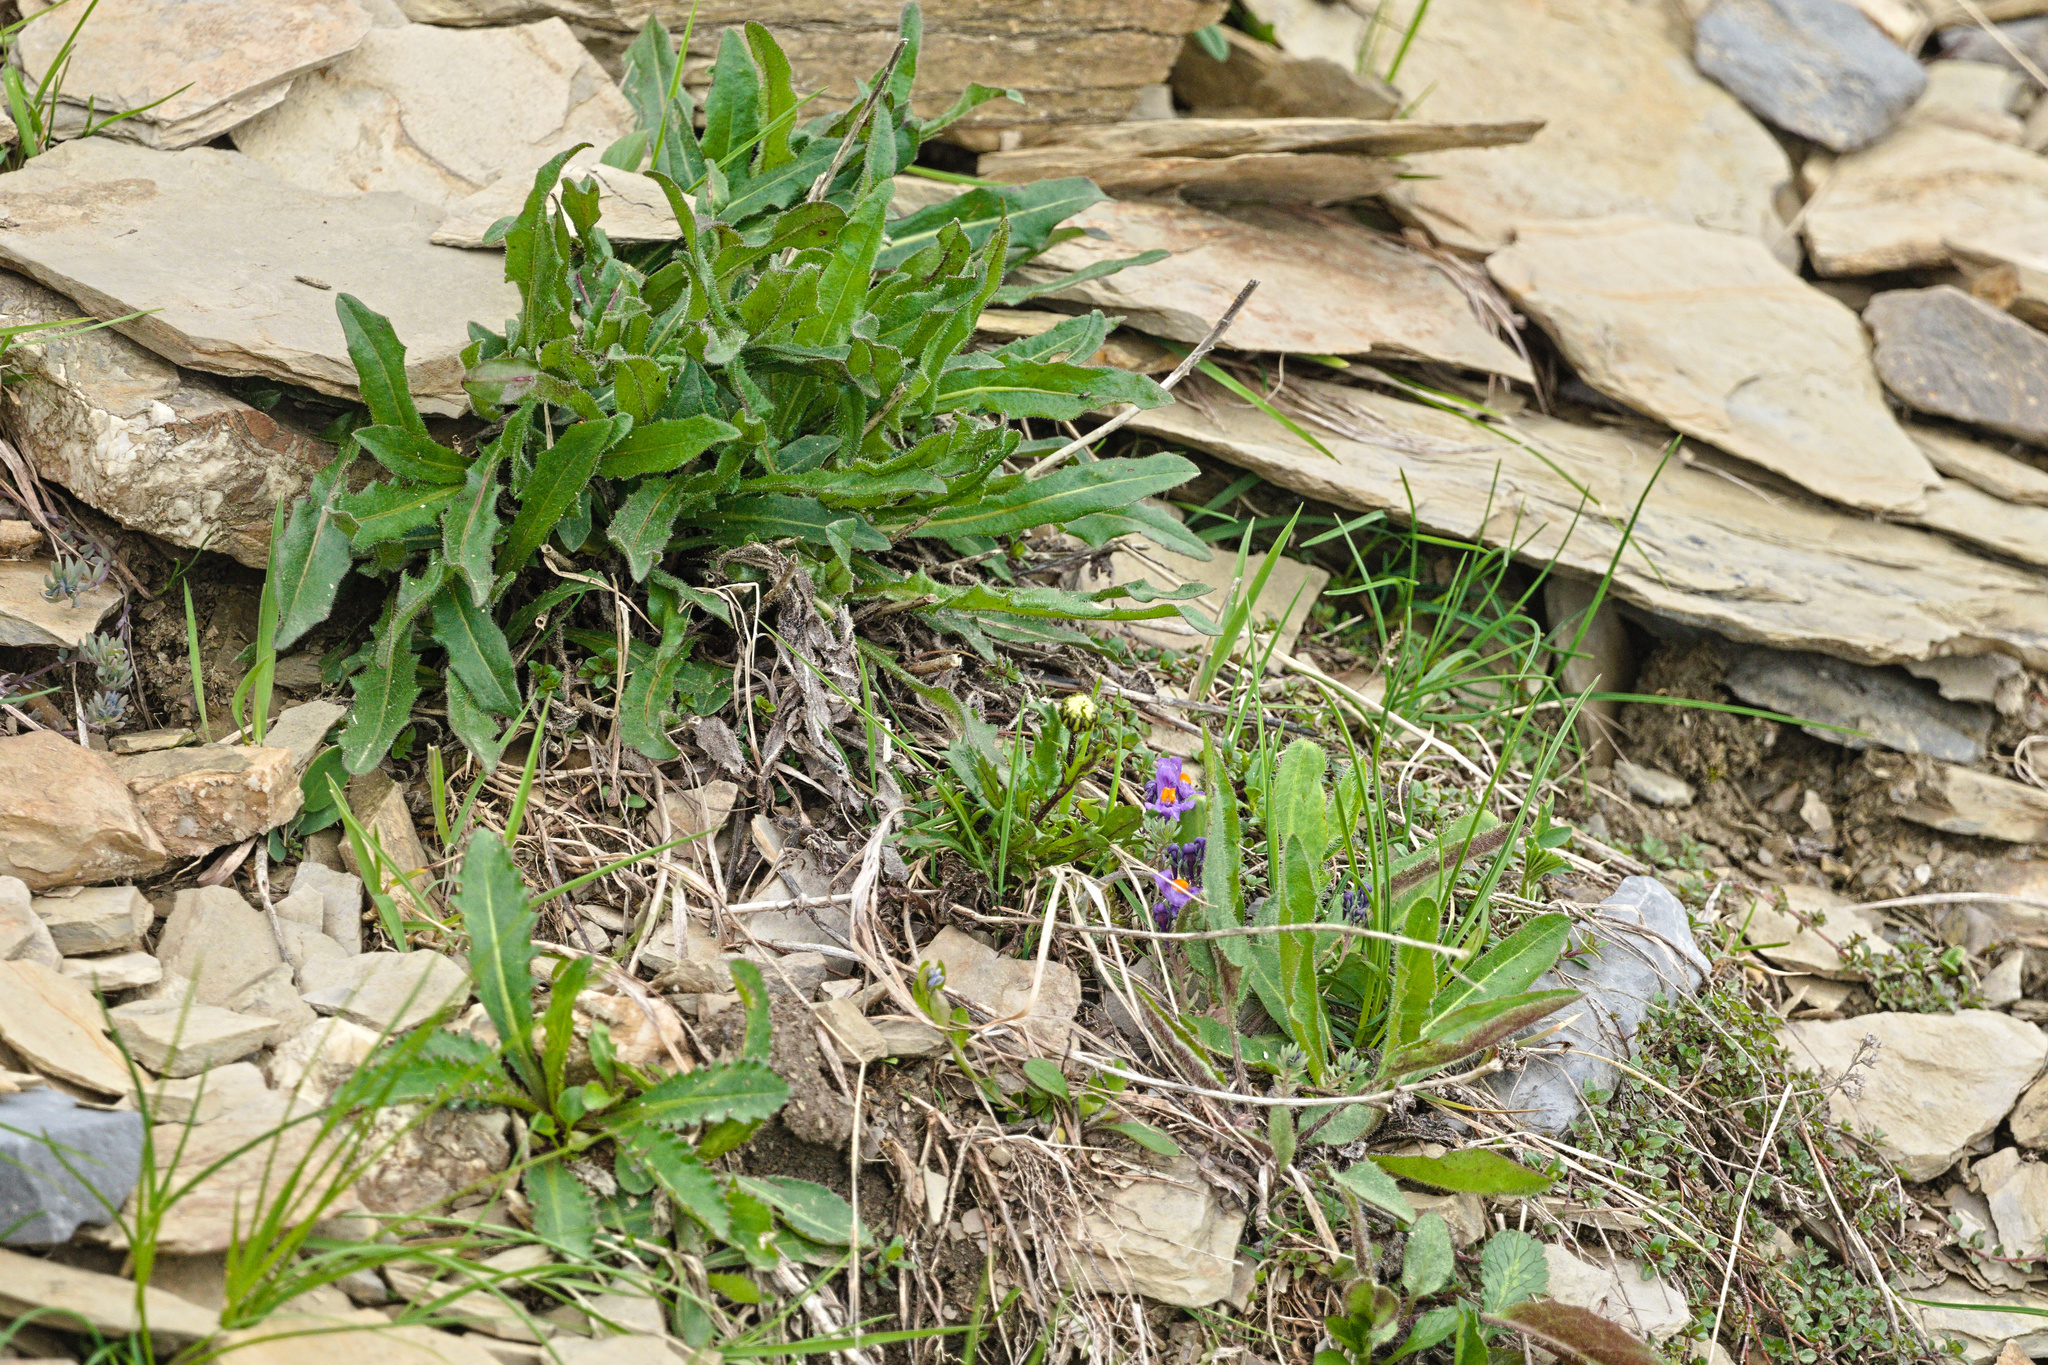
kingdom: Plantae
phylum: Tracheophyta
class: Magnoliopsida
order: Lamiales
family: Plantaginaceae
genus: Linaria
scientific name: Linaria alpina
